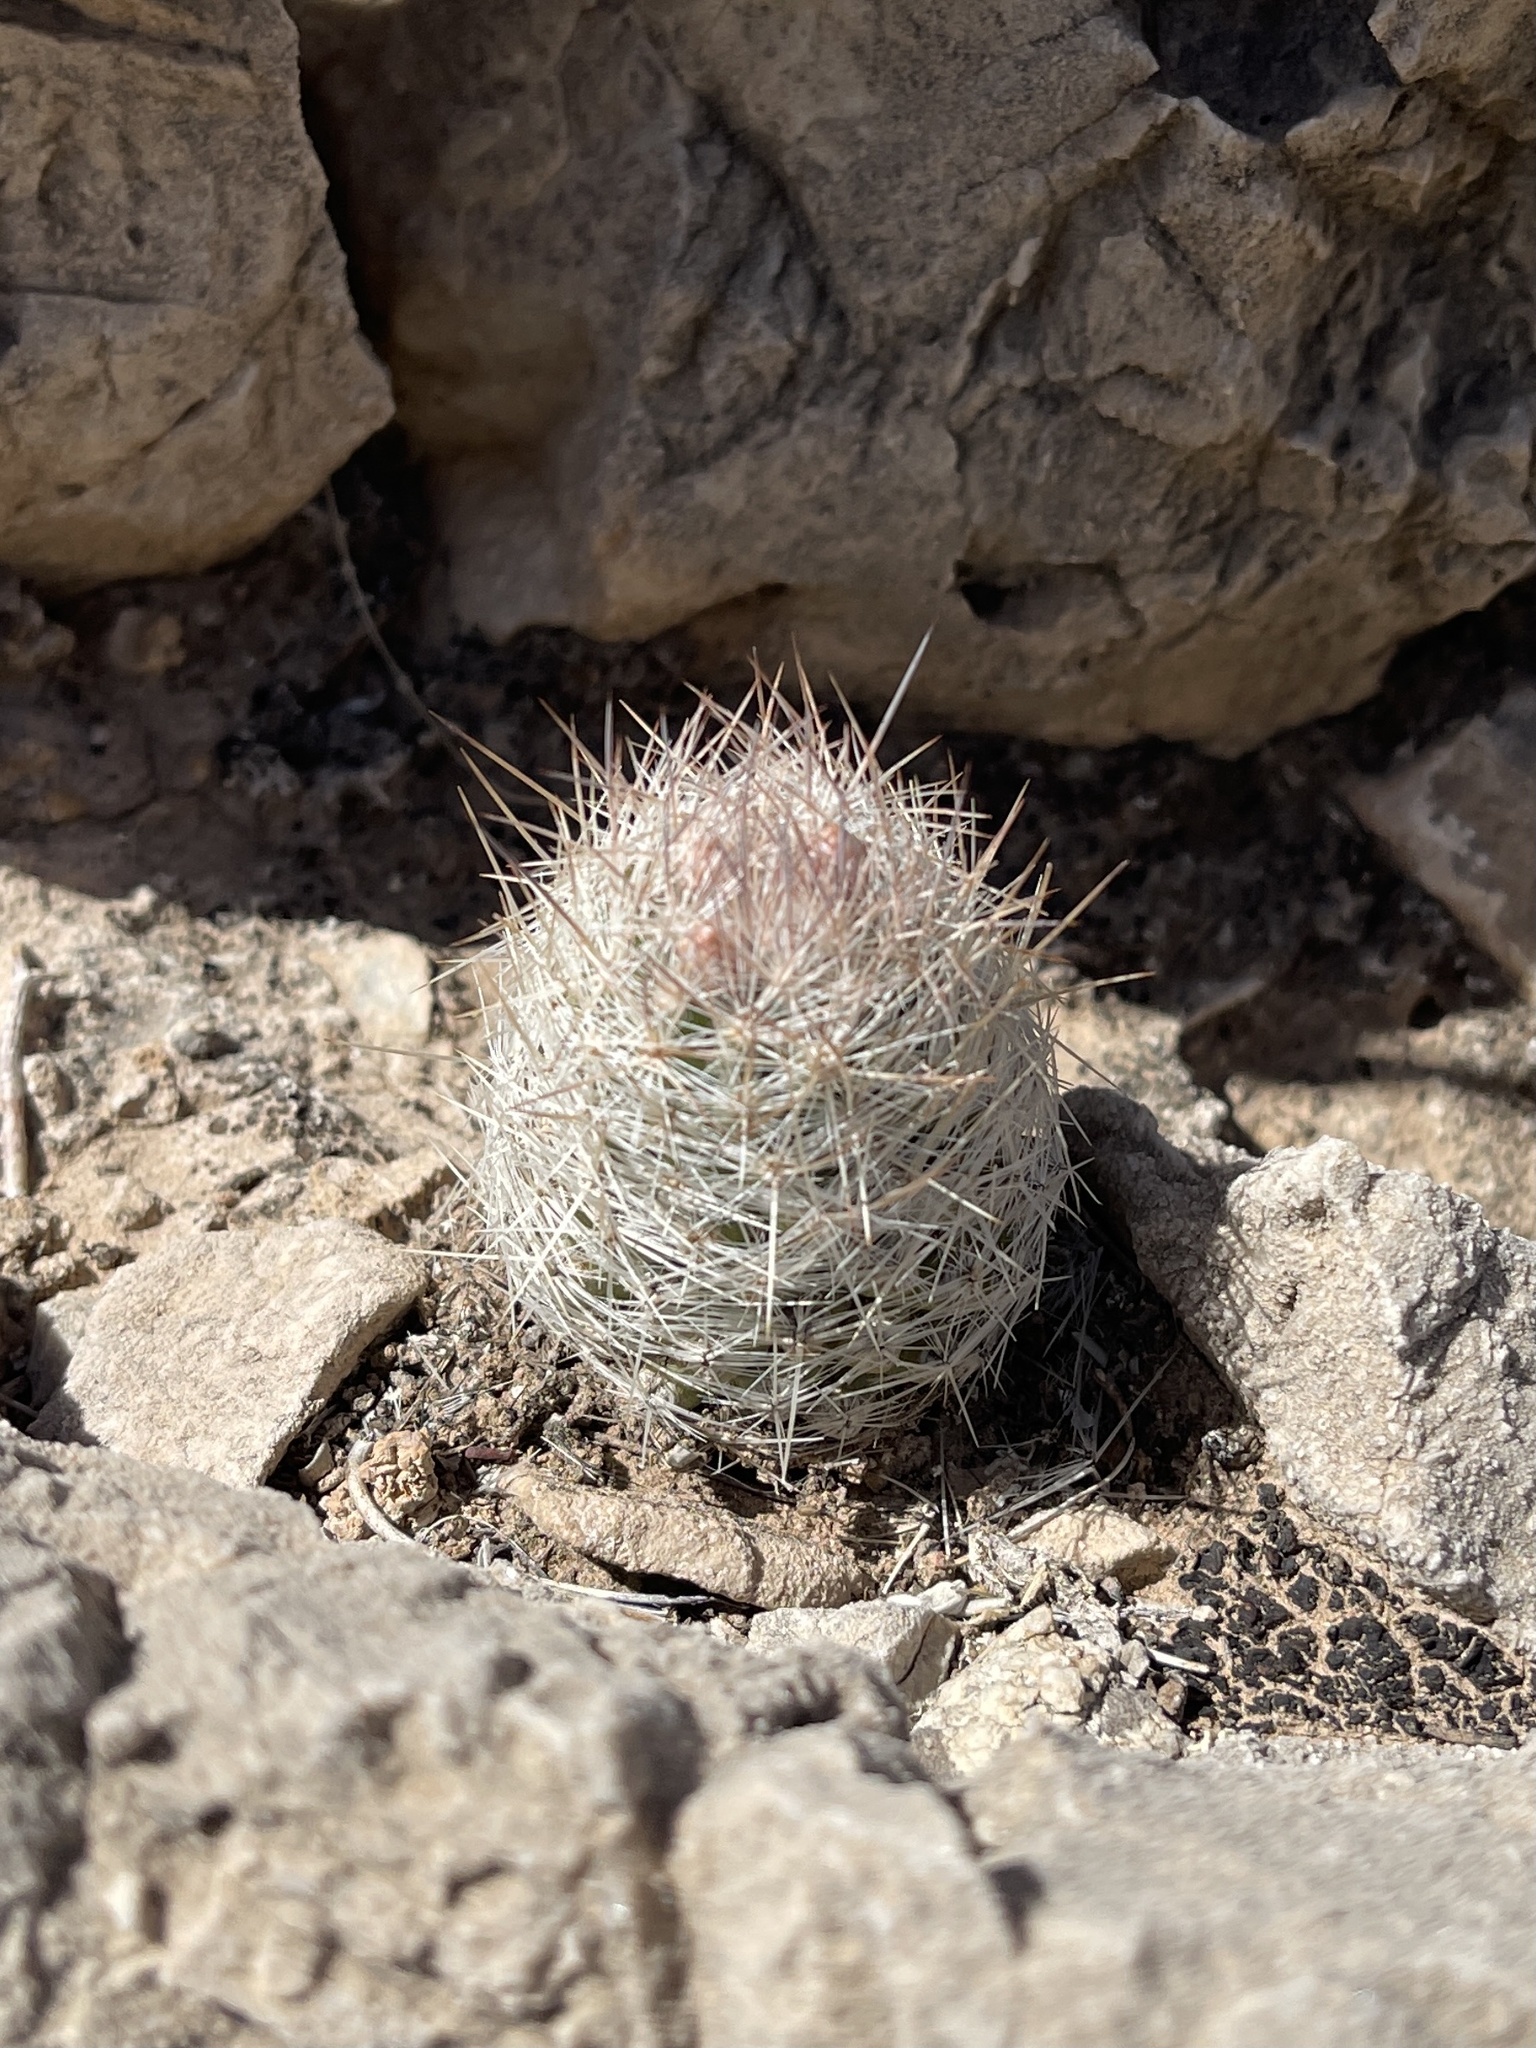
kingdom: Plantae
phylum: Tracheophyta
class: Magnoliopsida
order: Caryophyllales
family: Cactaceae
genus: Pelecyphora
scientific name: Pelecyphora tuberculosa
